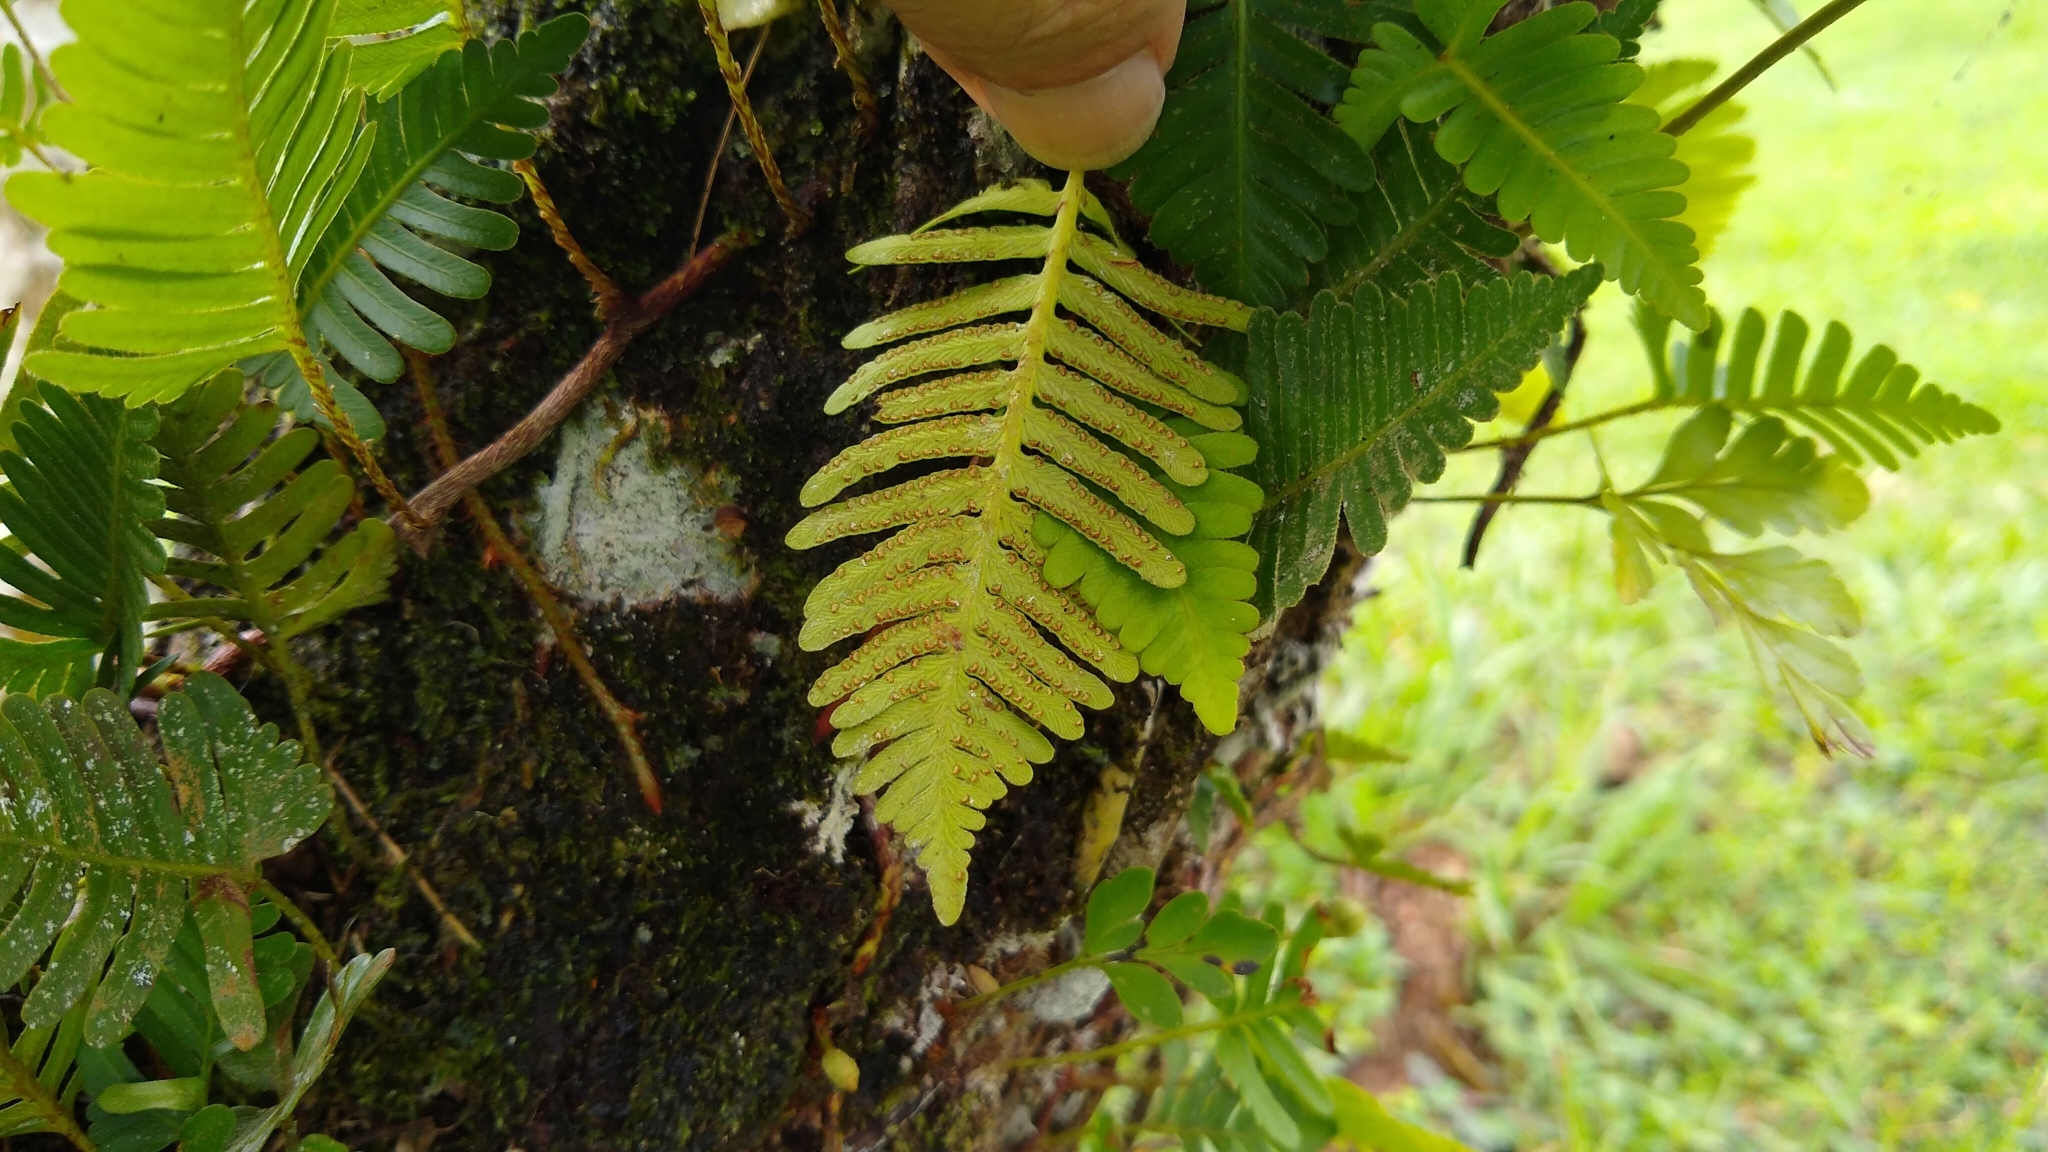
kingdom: Plantae
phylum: Tracheophyta
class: Polypodiopsida
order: Polypodiales
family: Davalliaceae
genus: Davallia
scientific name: Davallia pectinata
